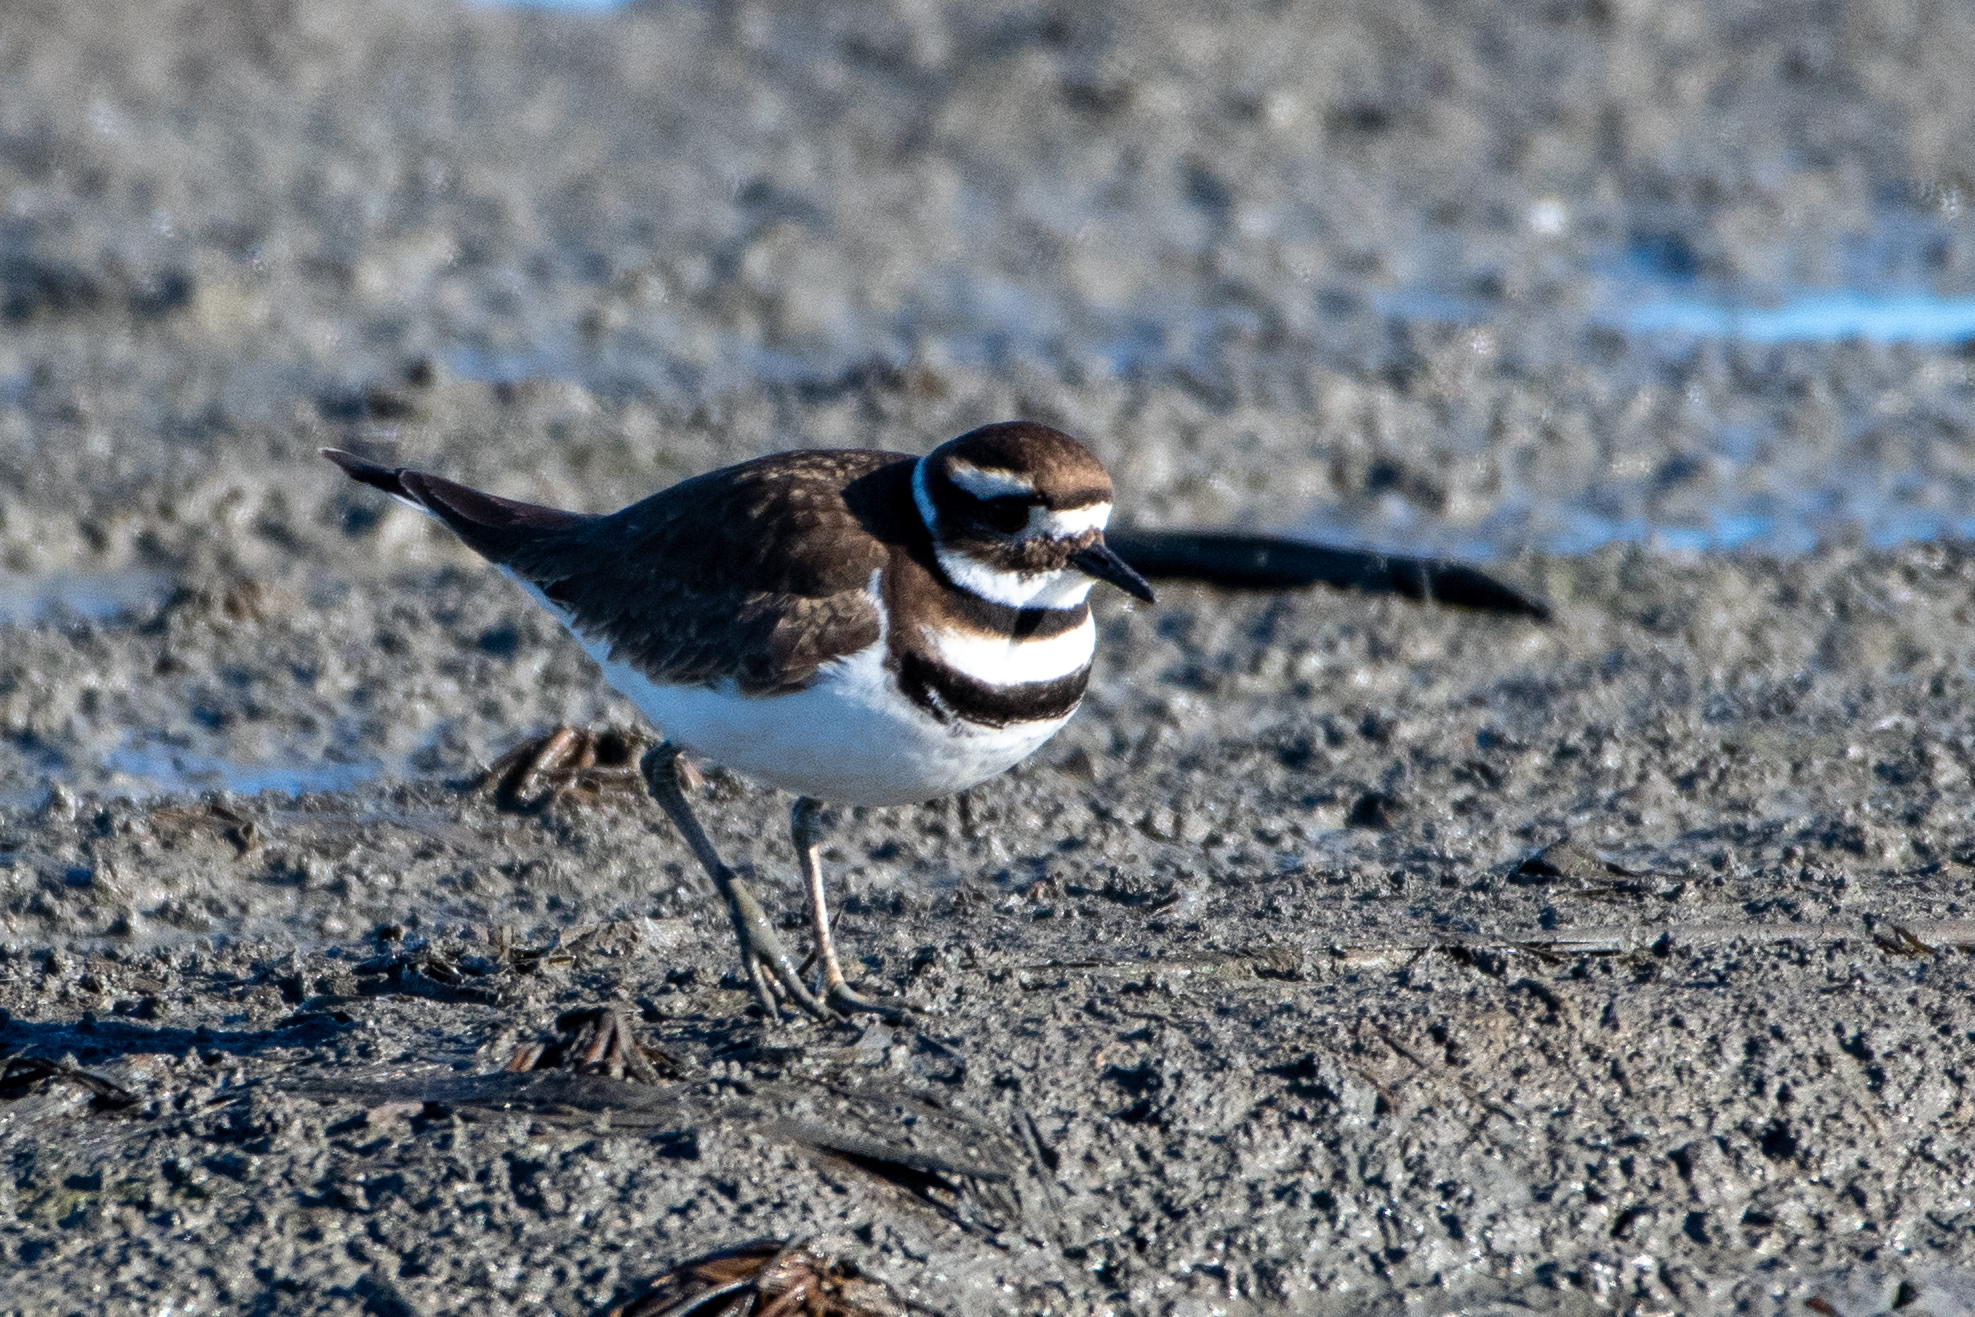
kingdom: Animalia
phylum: Chordata
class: Aves
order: Charadriiformes
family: Charadriidae
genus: Charadrius
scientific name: Charadrius vociferus
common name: Killdeer
